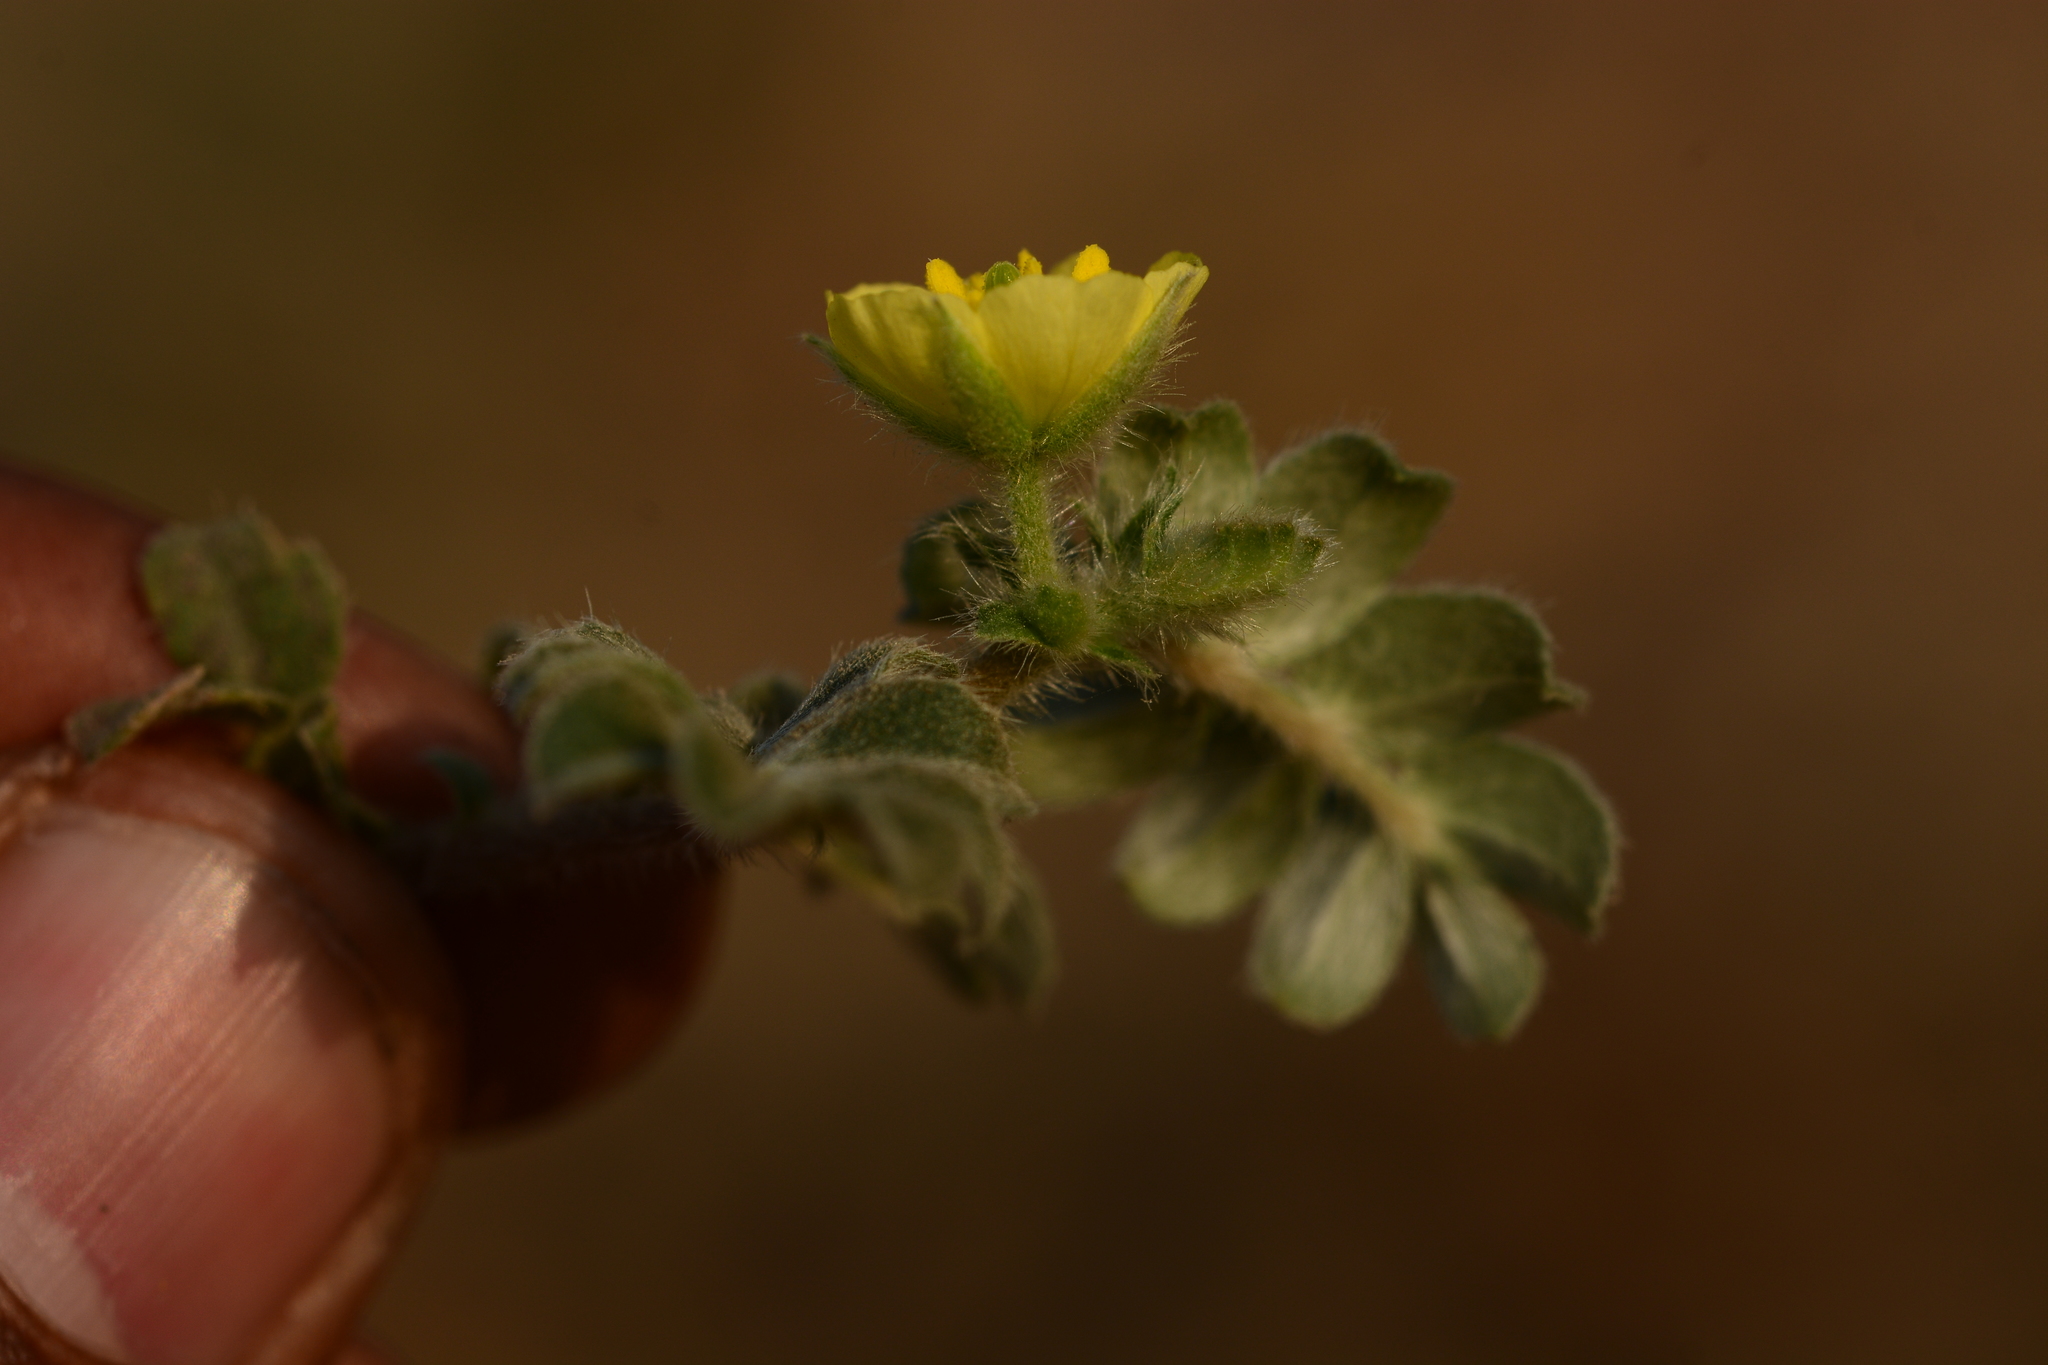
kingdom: Plantae
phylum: Tracheophyta
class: Magnoliopsida
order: Zygophyllales
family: Zygophyllaceae
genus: Tribulus
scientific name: Tribulus terrestris
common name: Puncturevine
